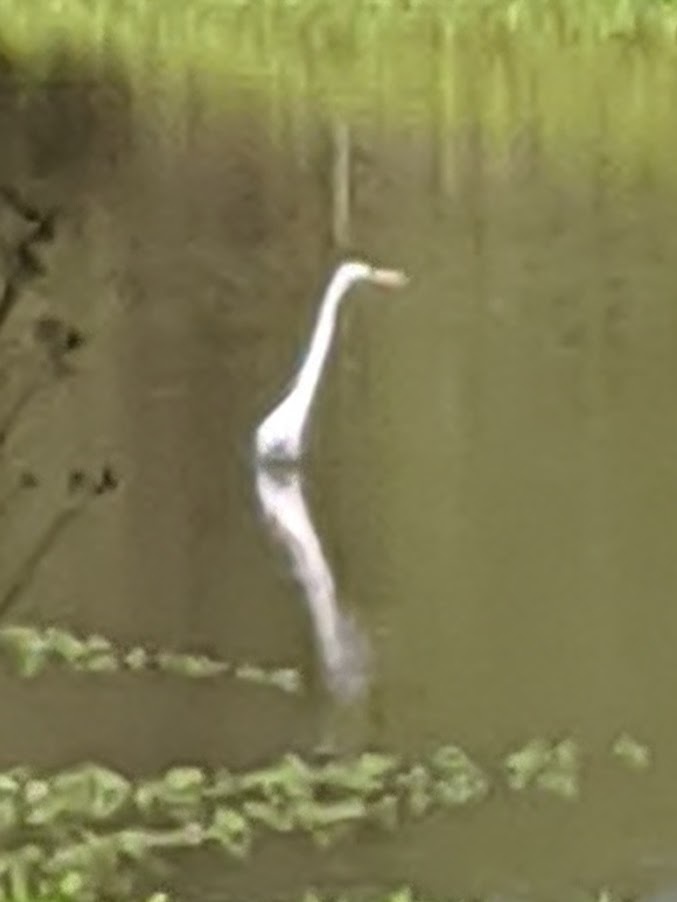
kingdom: Animalia
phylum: Chordata
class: Aves
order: Pelecaniformes
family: Ardeidae
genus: Ardea
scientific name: Ardea alba
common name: Great egret
